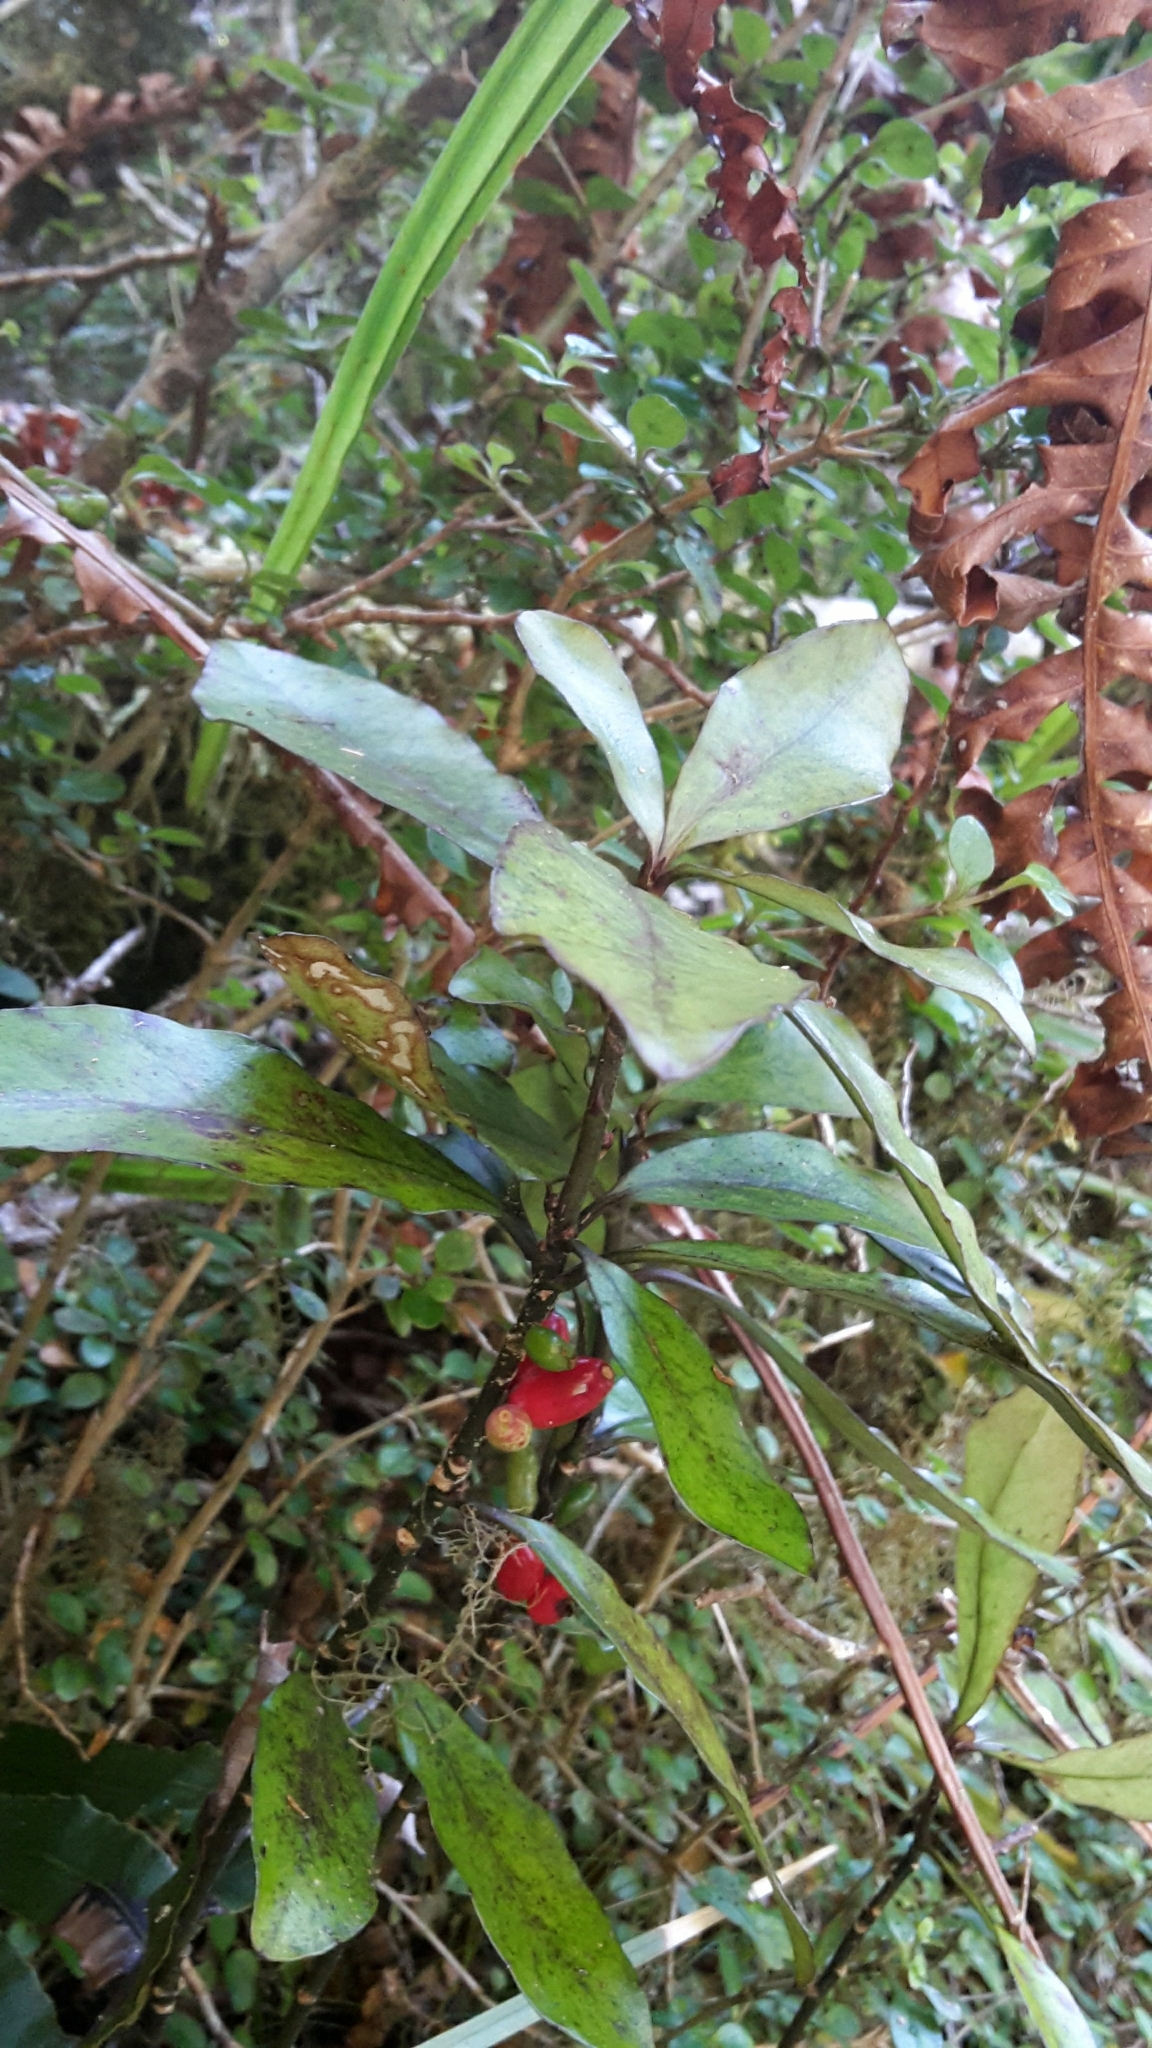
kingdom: Plantae
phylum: Tracheophyta
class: Magnoliopsida
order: Asterales
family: Alseuosmiaceae
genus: Alseuosmia
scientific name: Alseuosmia pusilla
